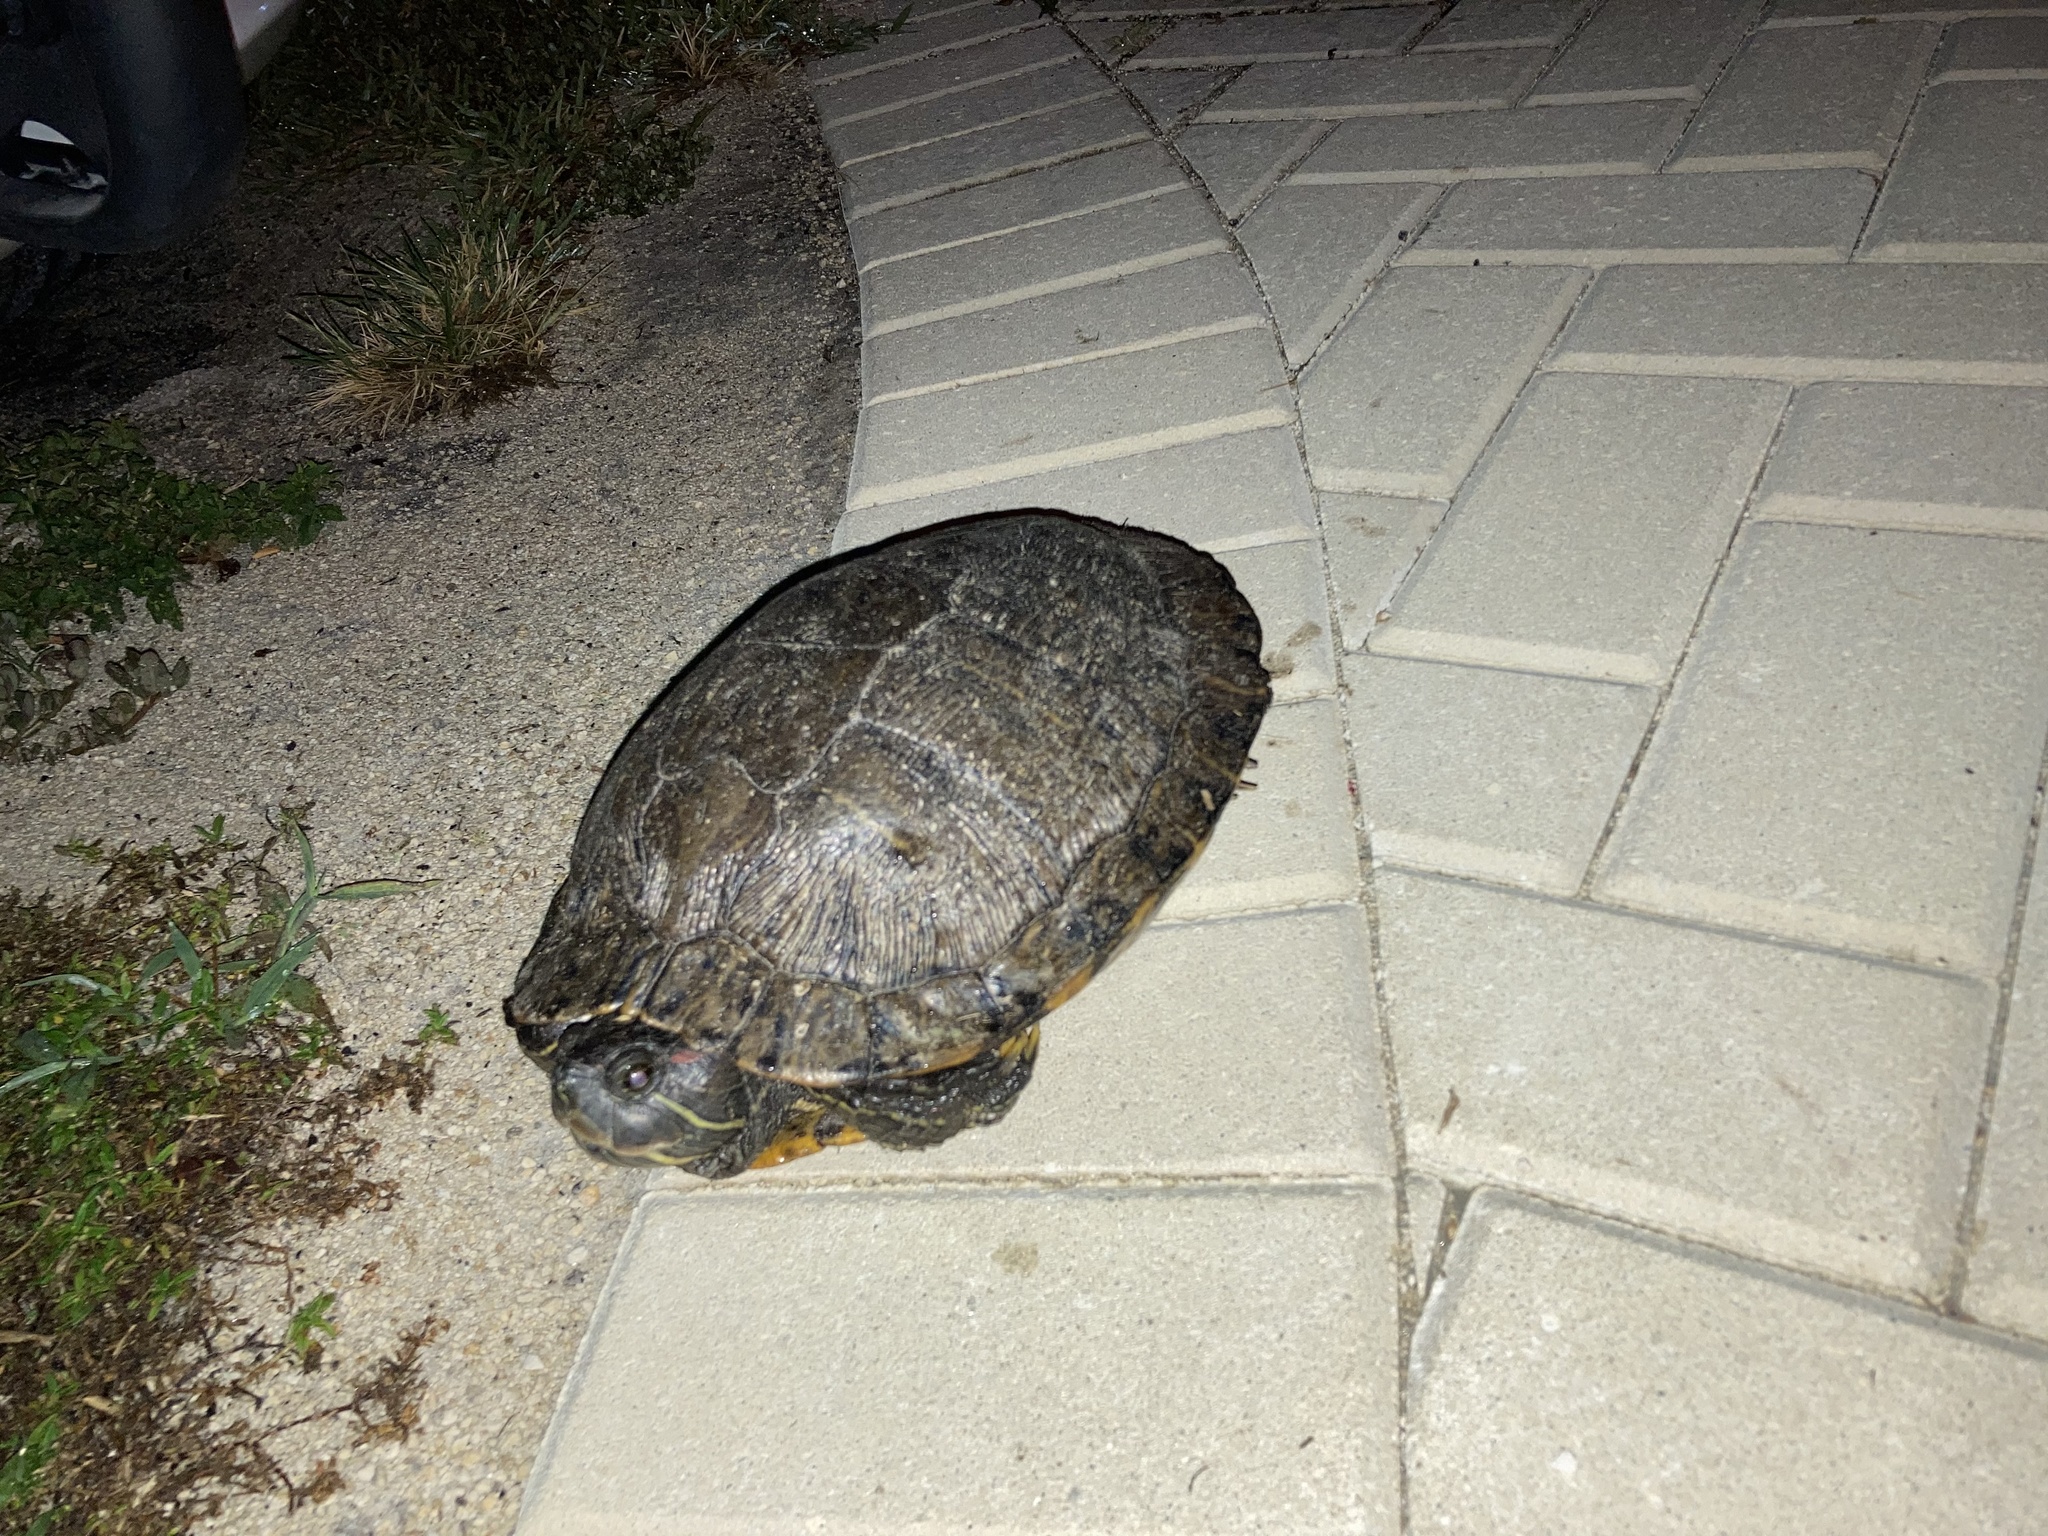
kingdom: Animalia
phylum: Chordata
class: Testudines
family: Emydidae
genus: Trachemys
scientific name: Trachemys scripta
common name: Slider
